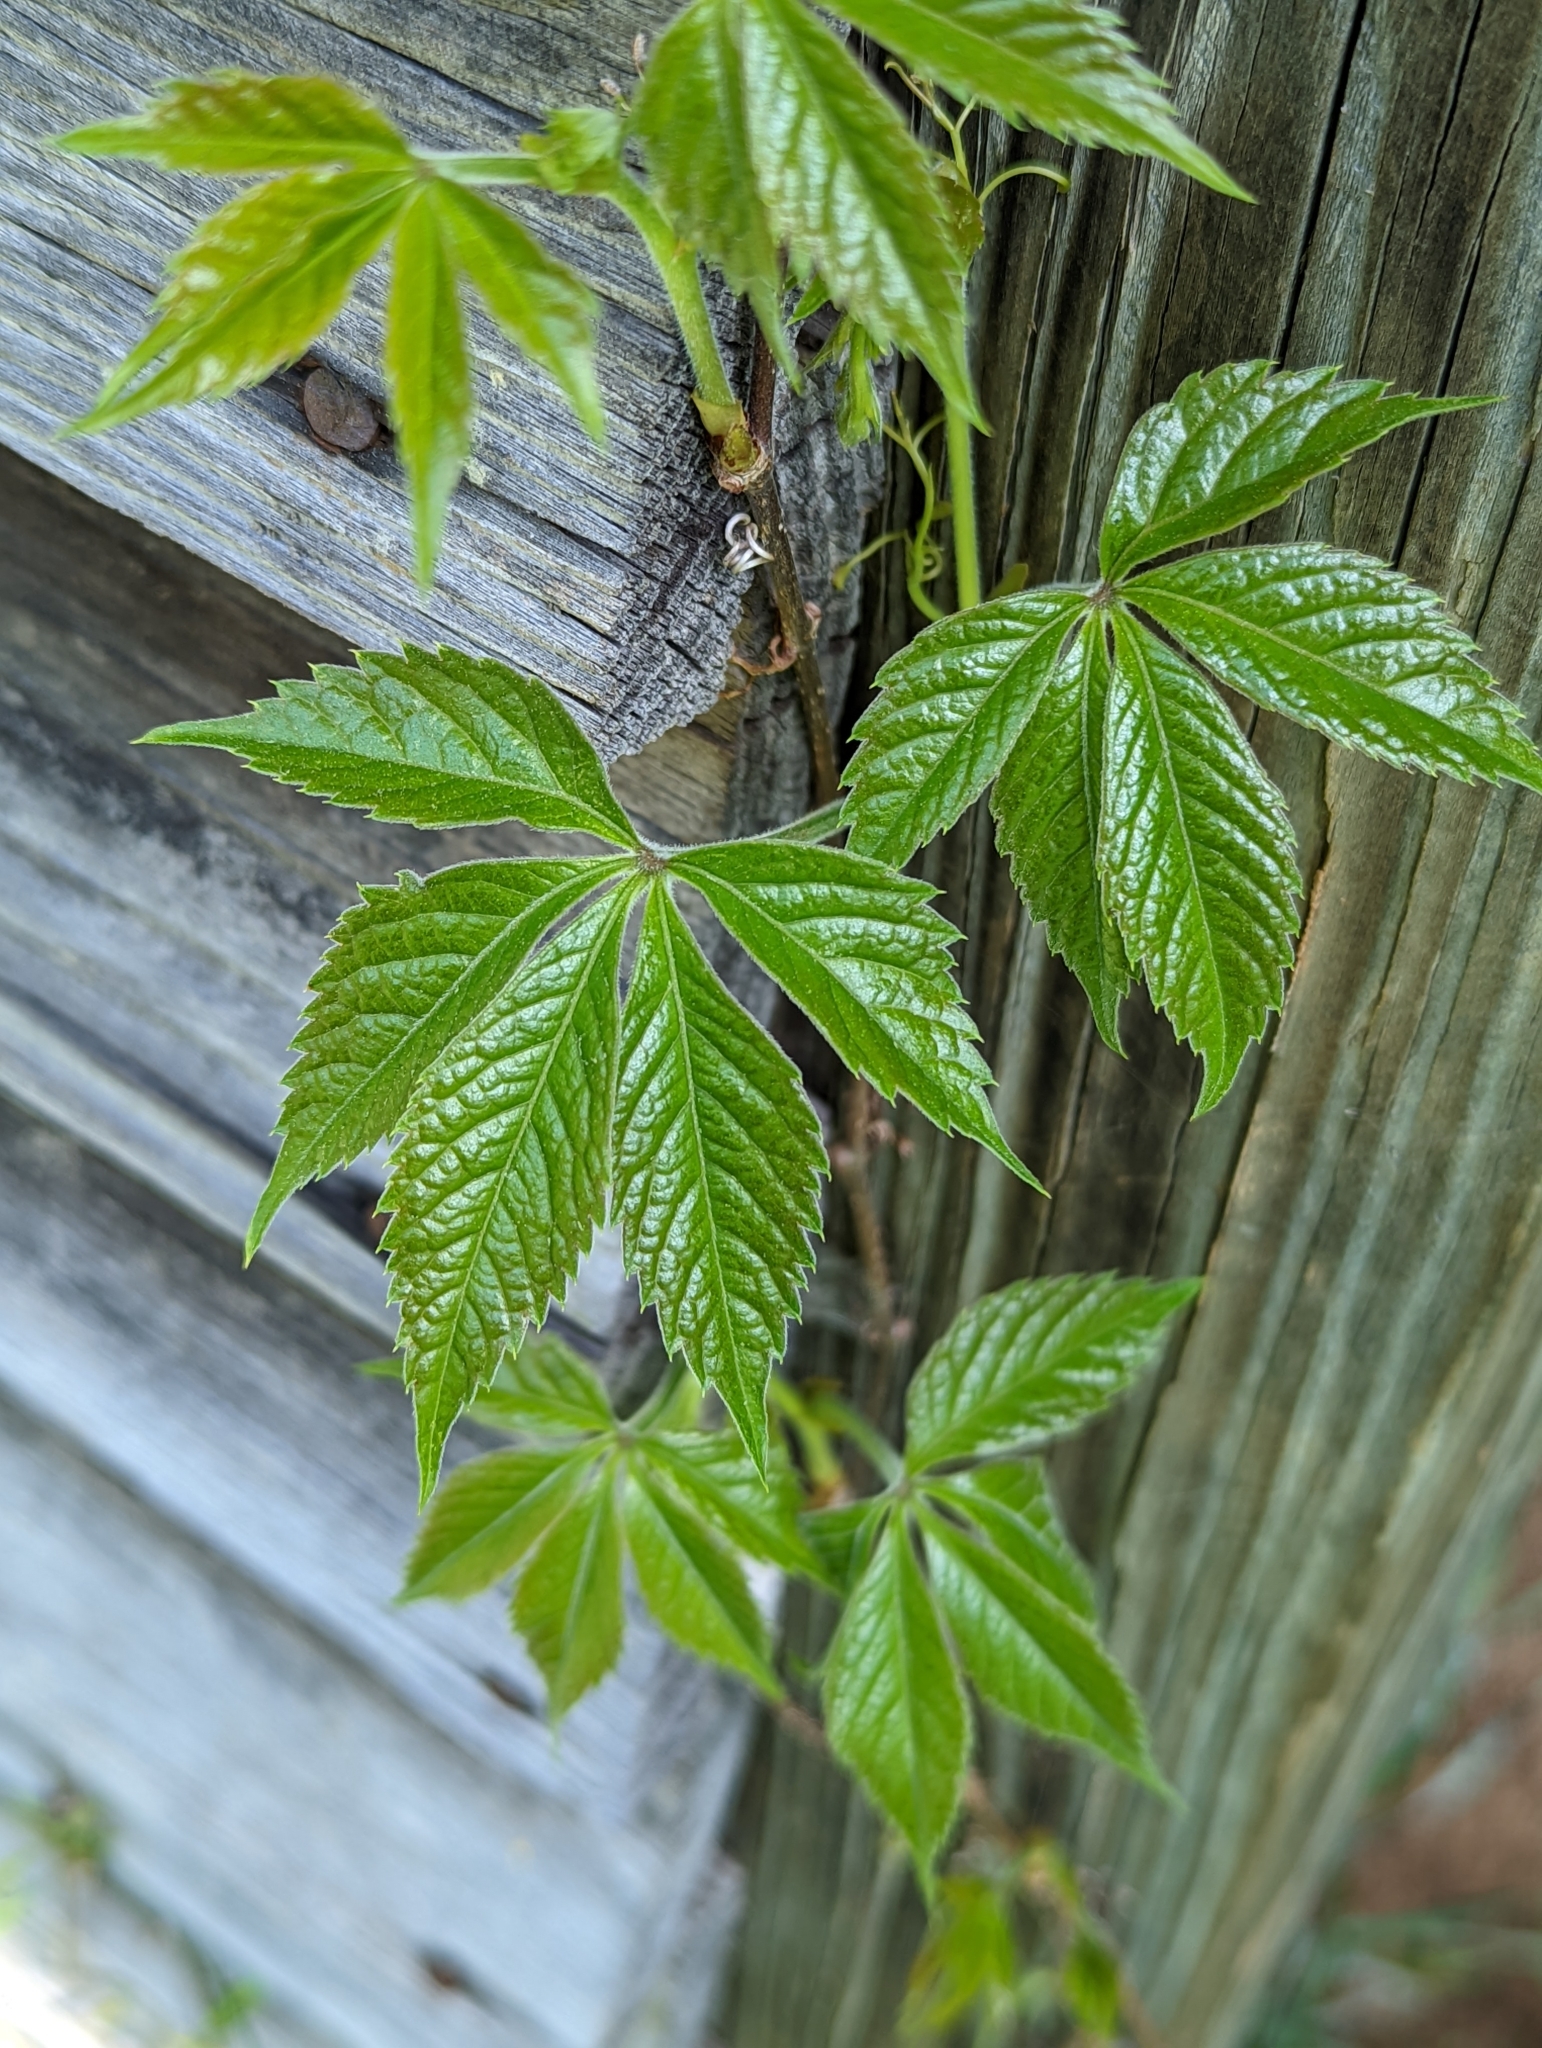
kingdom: Plantae
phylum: Tracheophyta
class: Magnoliopsida
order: Vitales
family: Vitaceae
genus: Parthenocissus
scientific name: Parthenocissus quinquefolia
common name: Virginia-creeper
